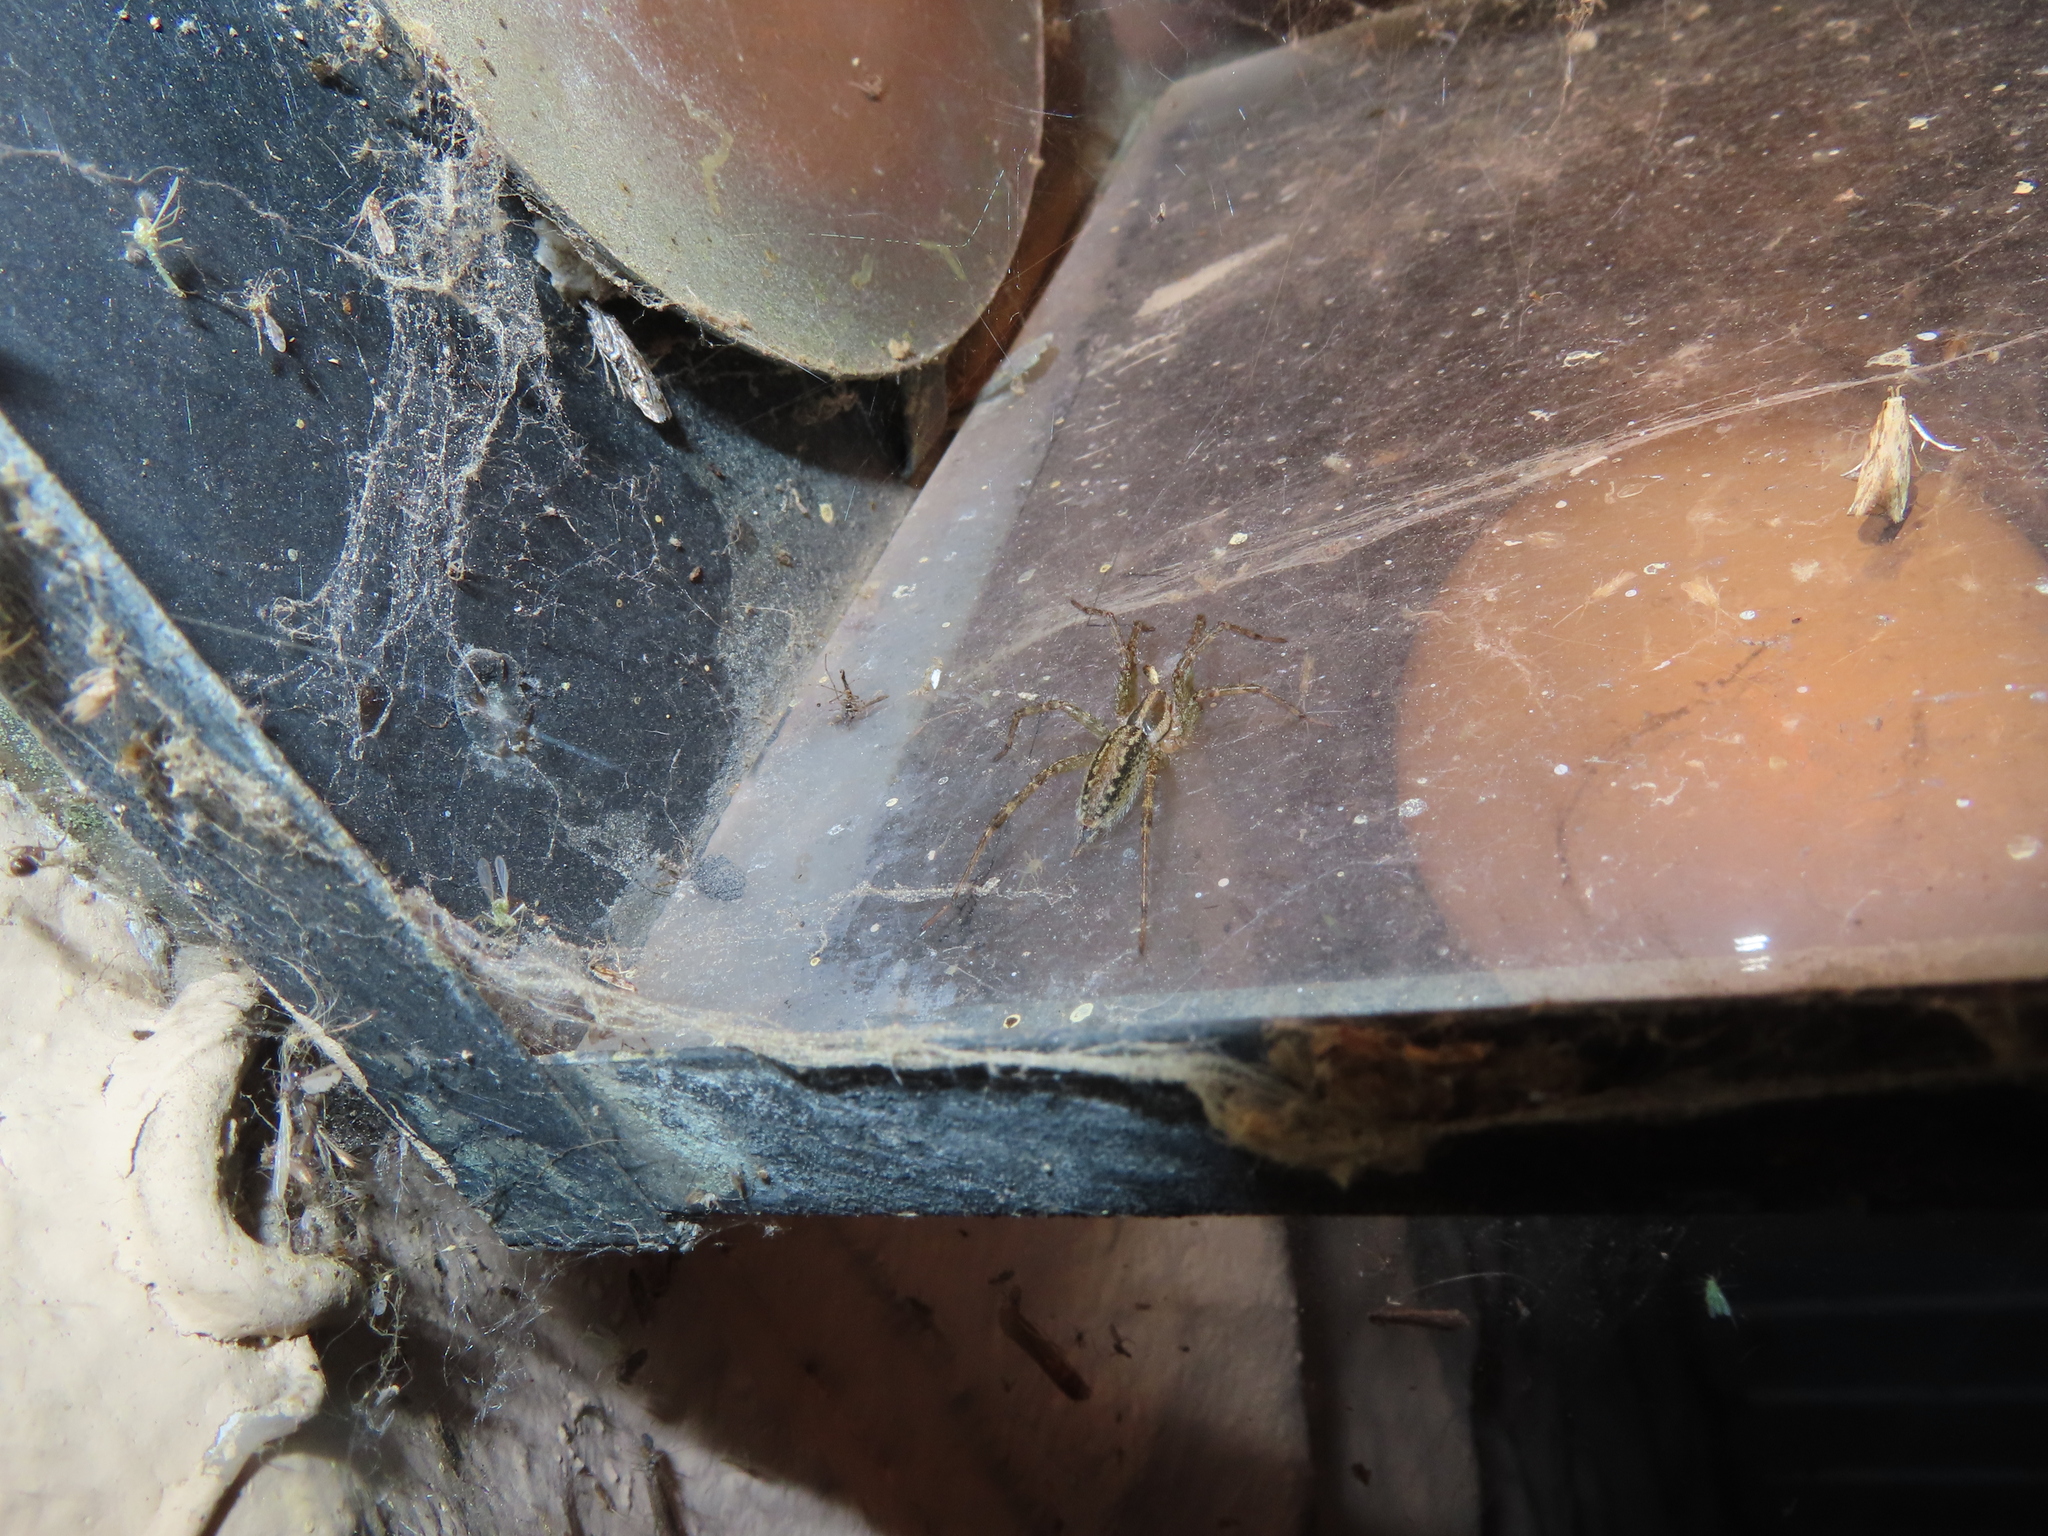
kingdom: Animalia
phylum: Arthropoda
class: Arachnida
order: Araneae
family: Agelenidae
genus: Agelenopsis
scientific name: Agelenopsis
